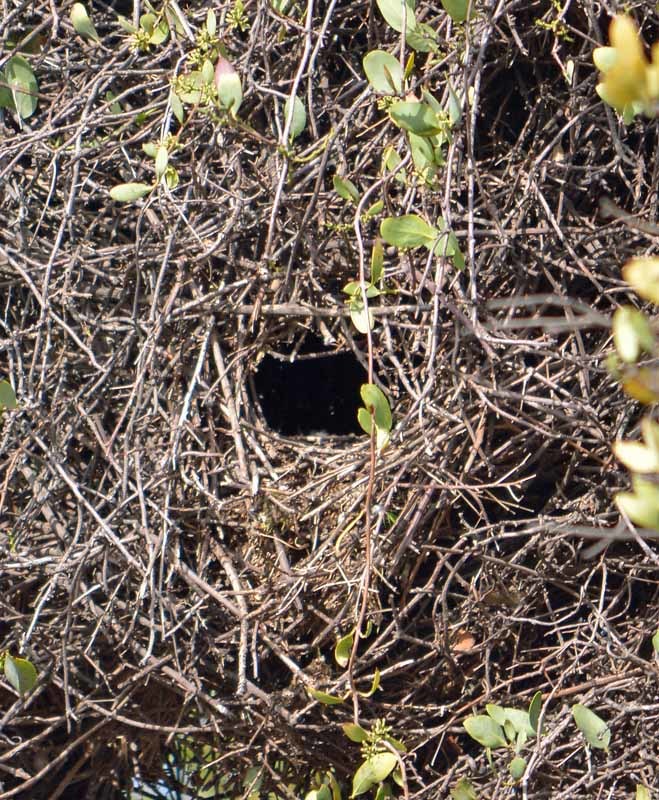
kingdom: Animalia
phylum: Chordata
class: Aves
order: Psittaciformes
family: Psittacidae
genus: Myiopsitta
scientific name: Myiopsitta monachus
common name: Monk parakeet
